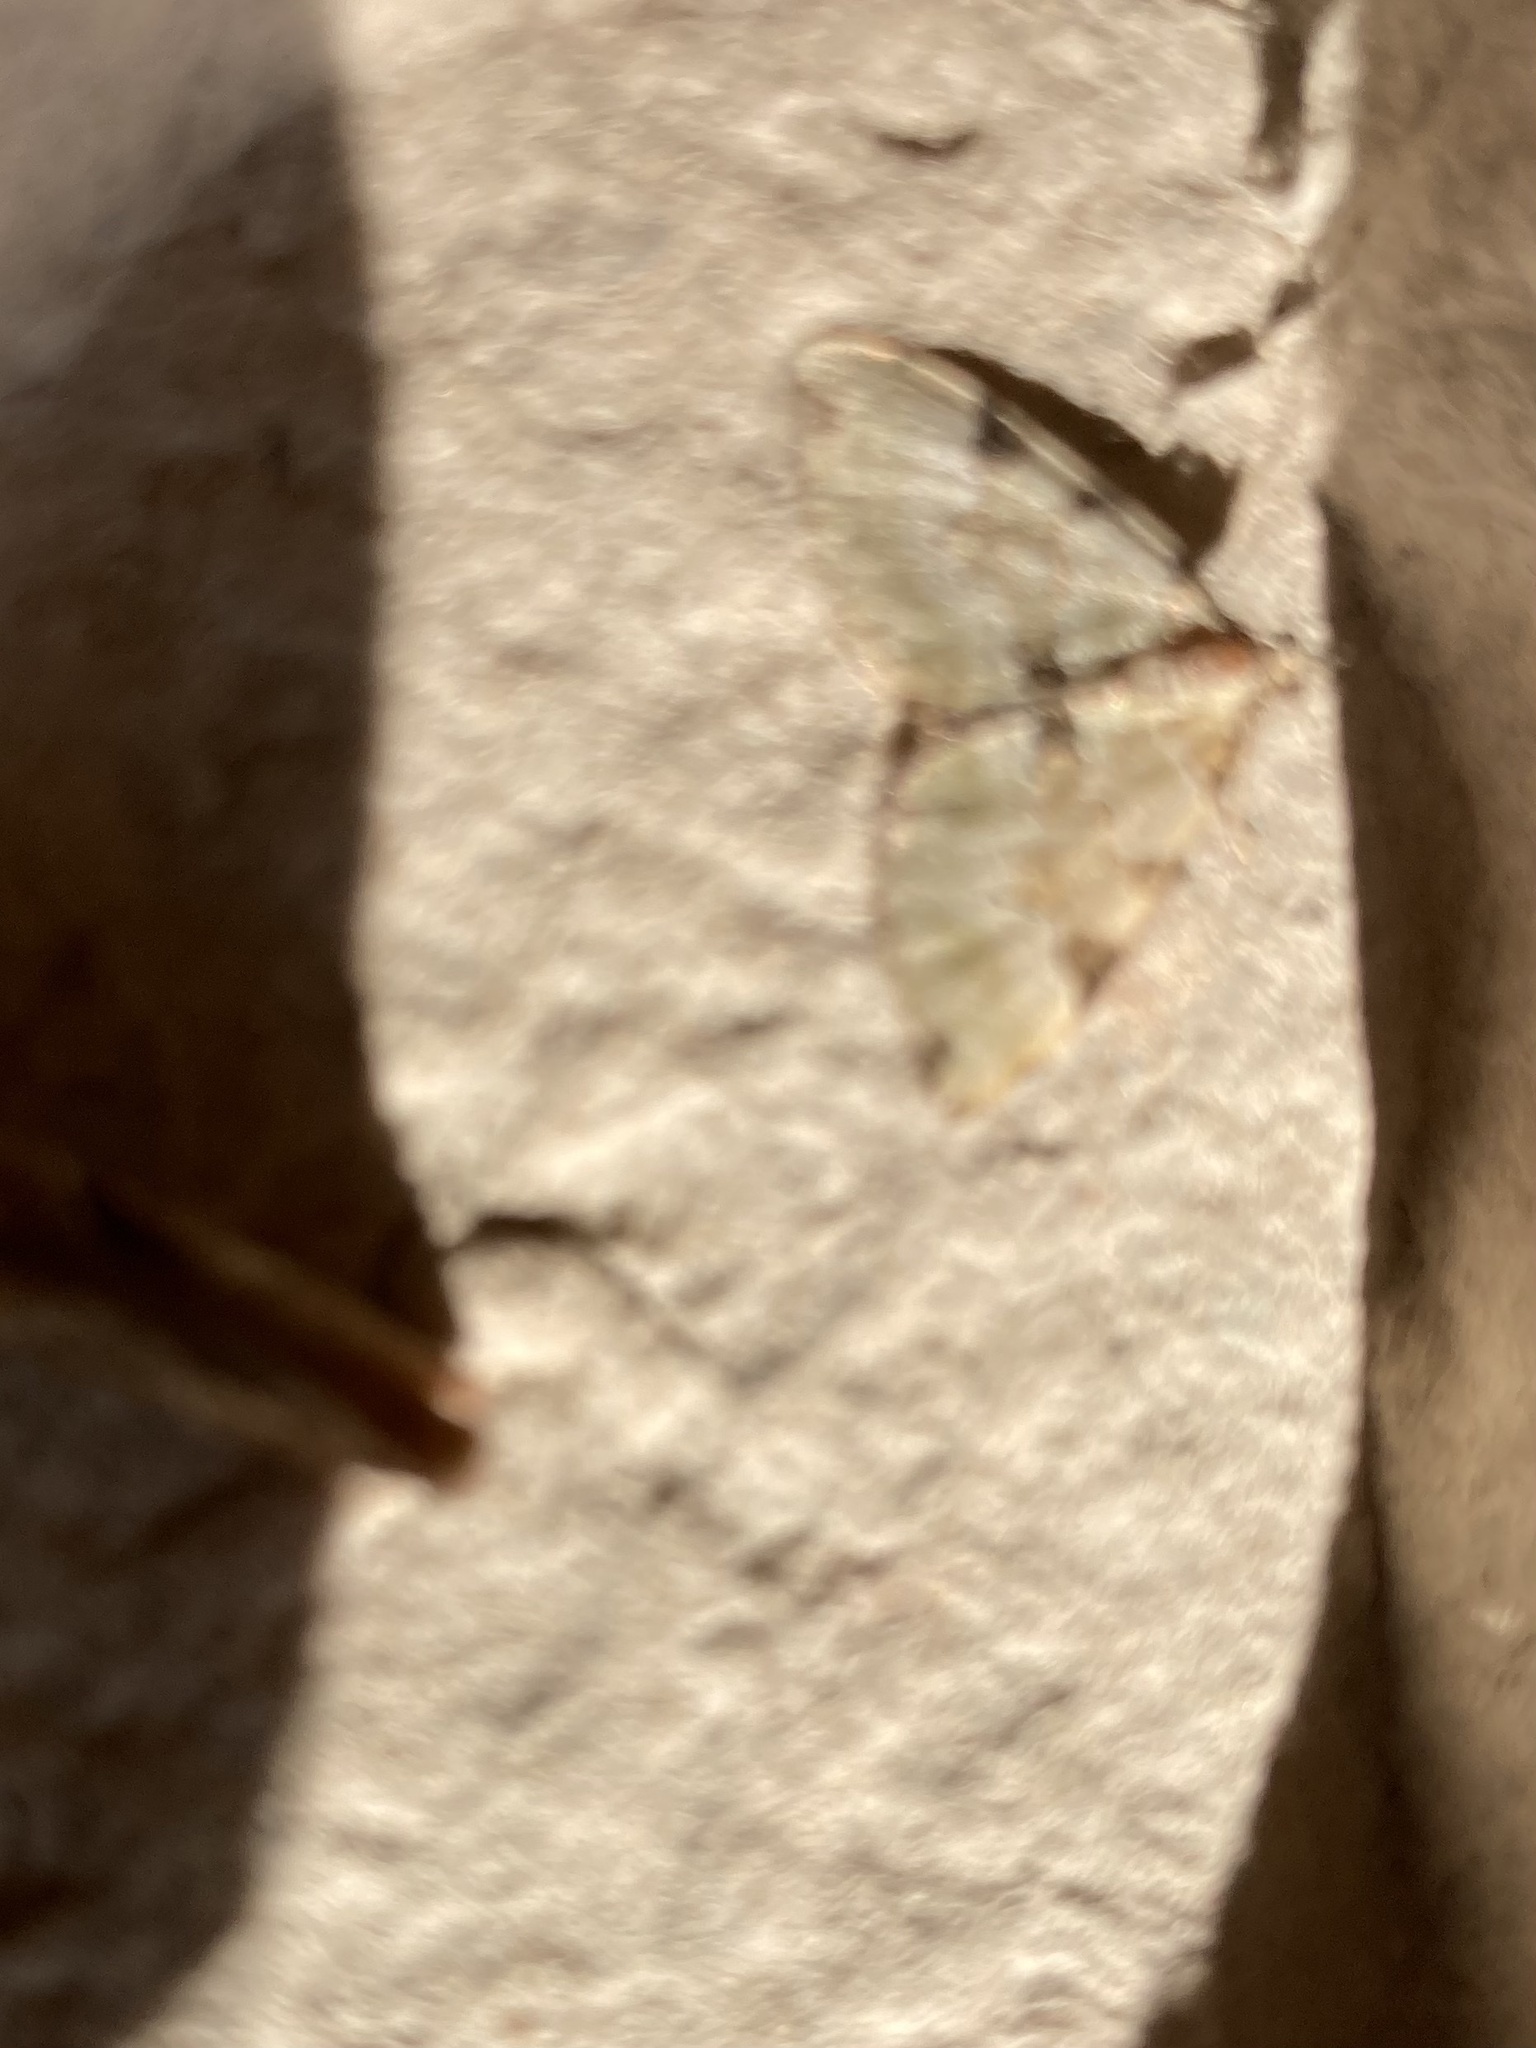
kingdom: Animalia
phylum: Arthropoda
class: Insecta
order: Lepidoptera
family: Geometridae
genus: Colostygia
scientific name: Colostygia pectinataria
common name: Green carpet
